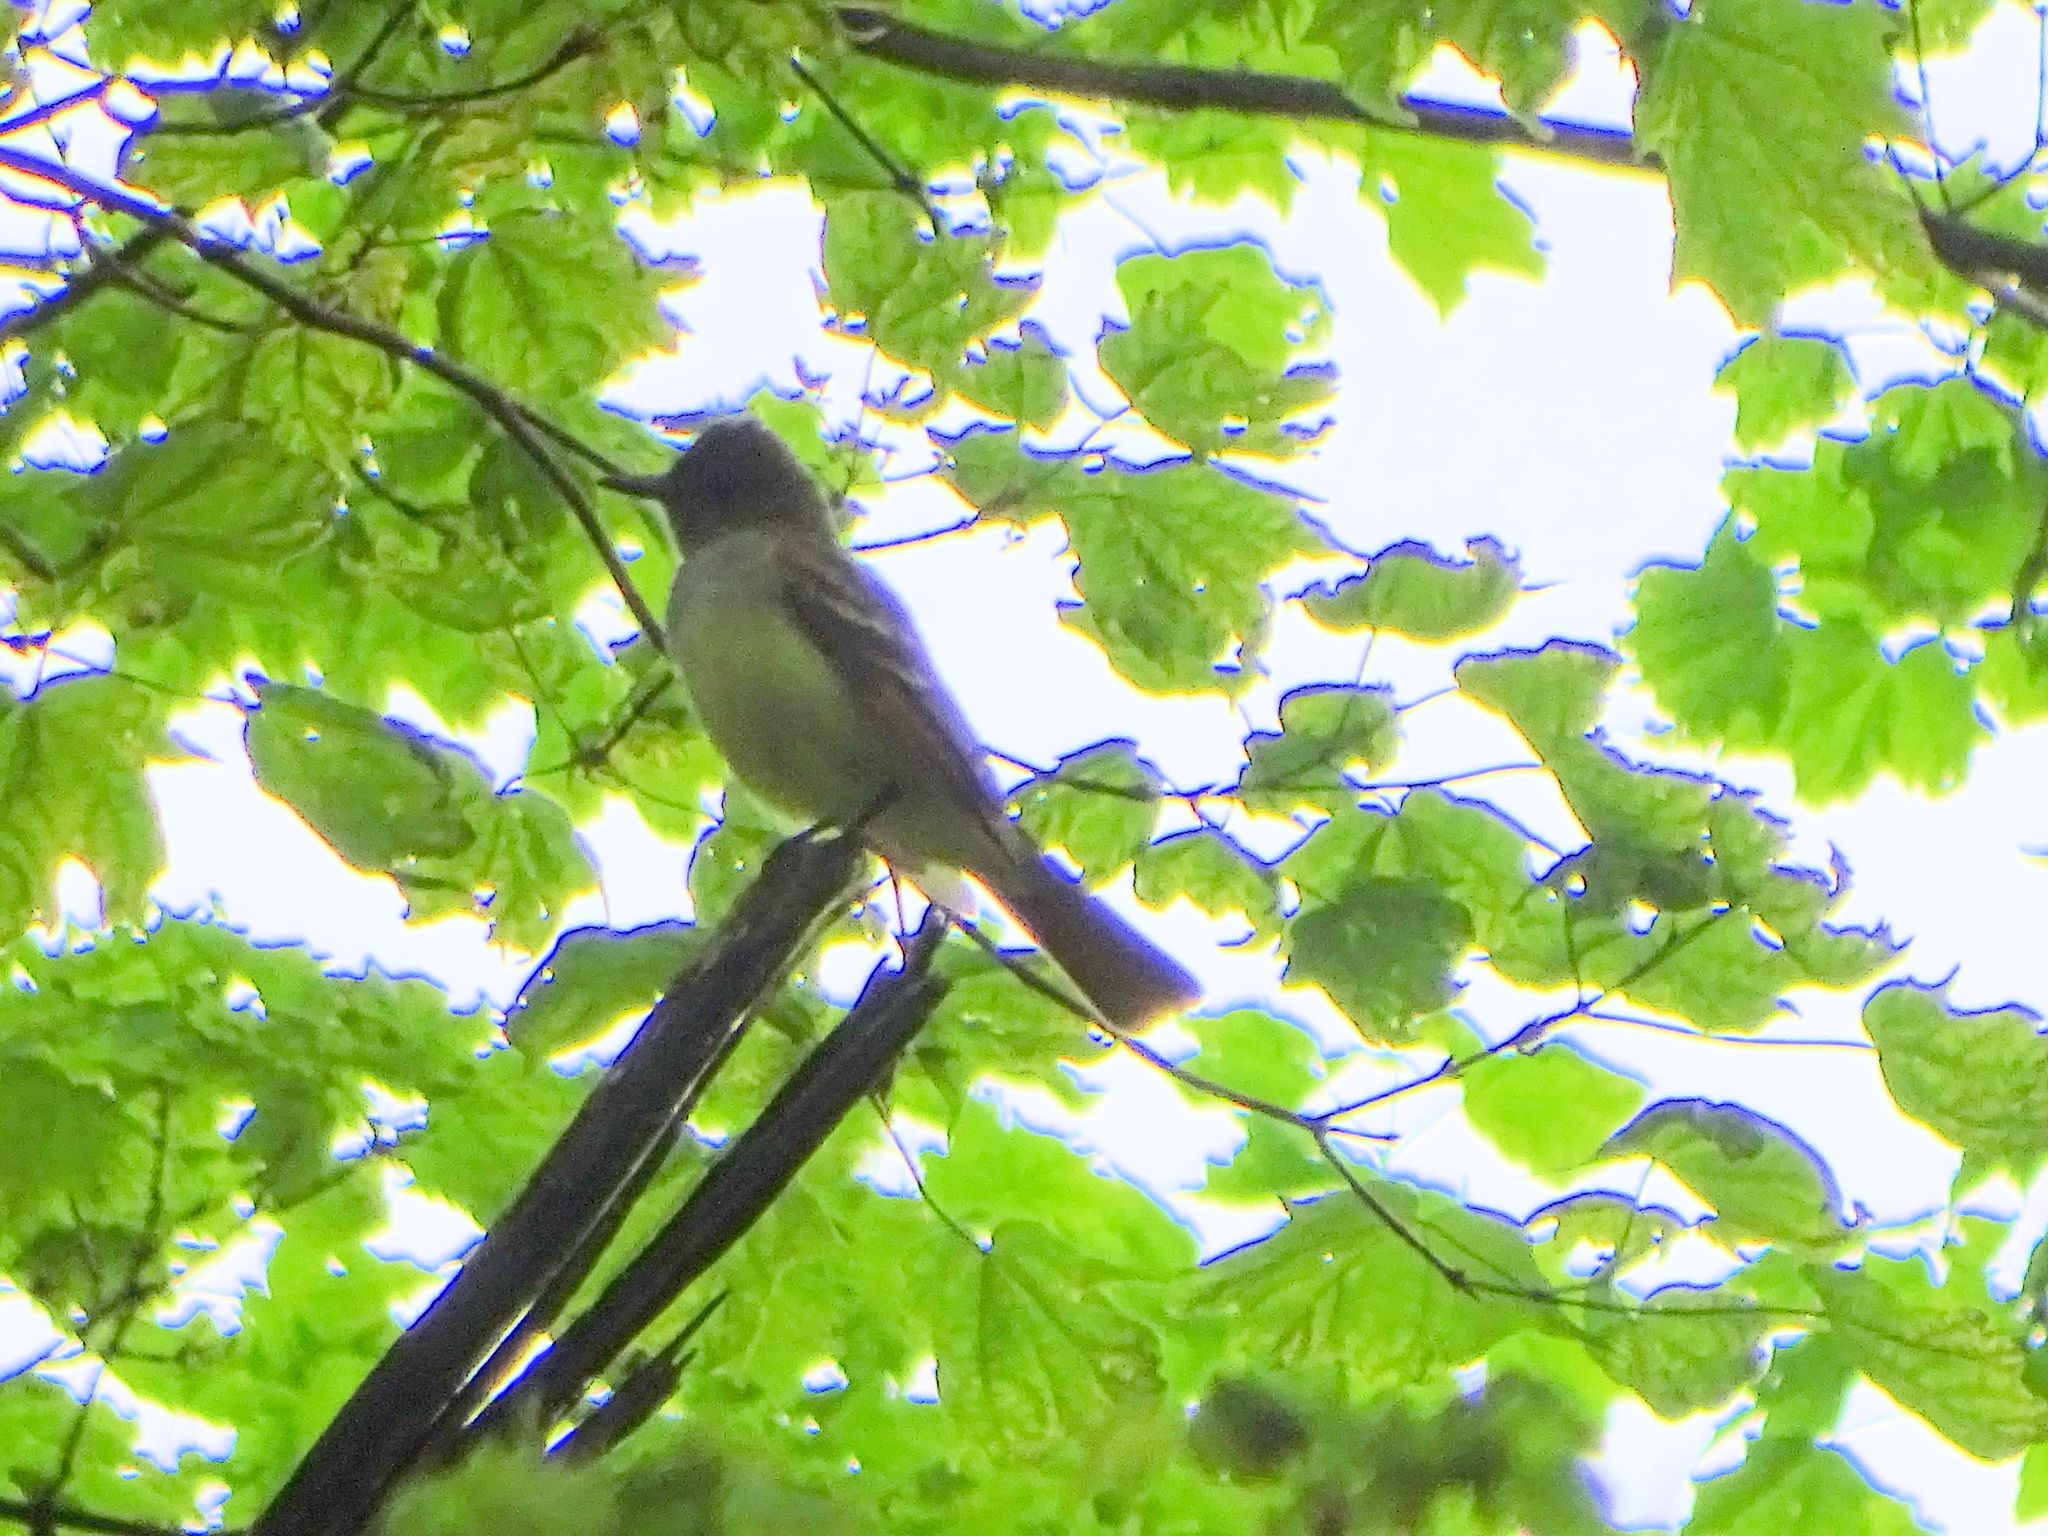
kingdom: Animalia
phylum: Chordata
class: Aves
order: Passeriformes
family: Tyrannidae
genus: Myiarchus
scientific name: Myiarchus crinitus
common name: Great crested flycatcher
